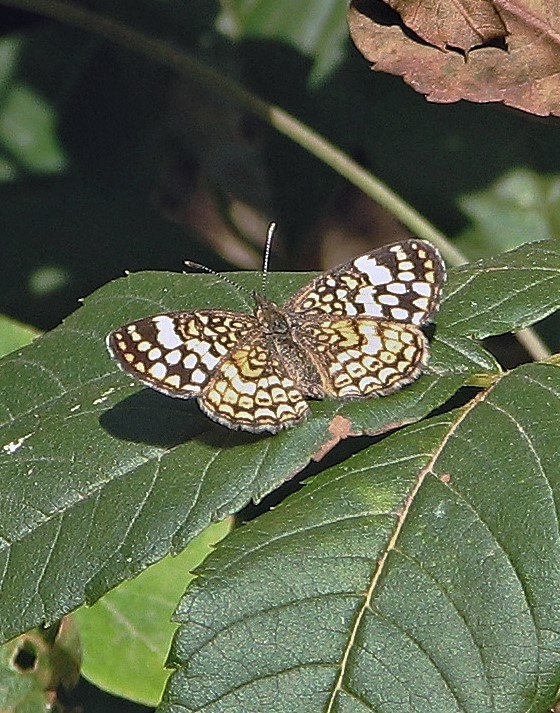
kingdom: Animalia
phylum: Arthropoda
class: Insecta
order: Lepidoptera
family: Nymphalidae
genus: Phystis
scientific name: Phystis simois
